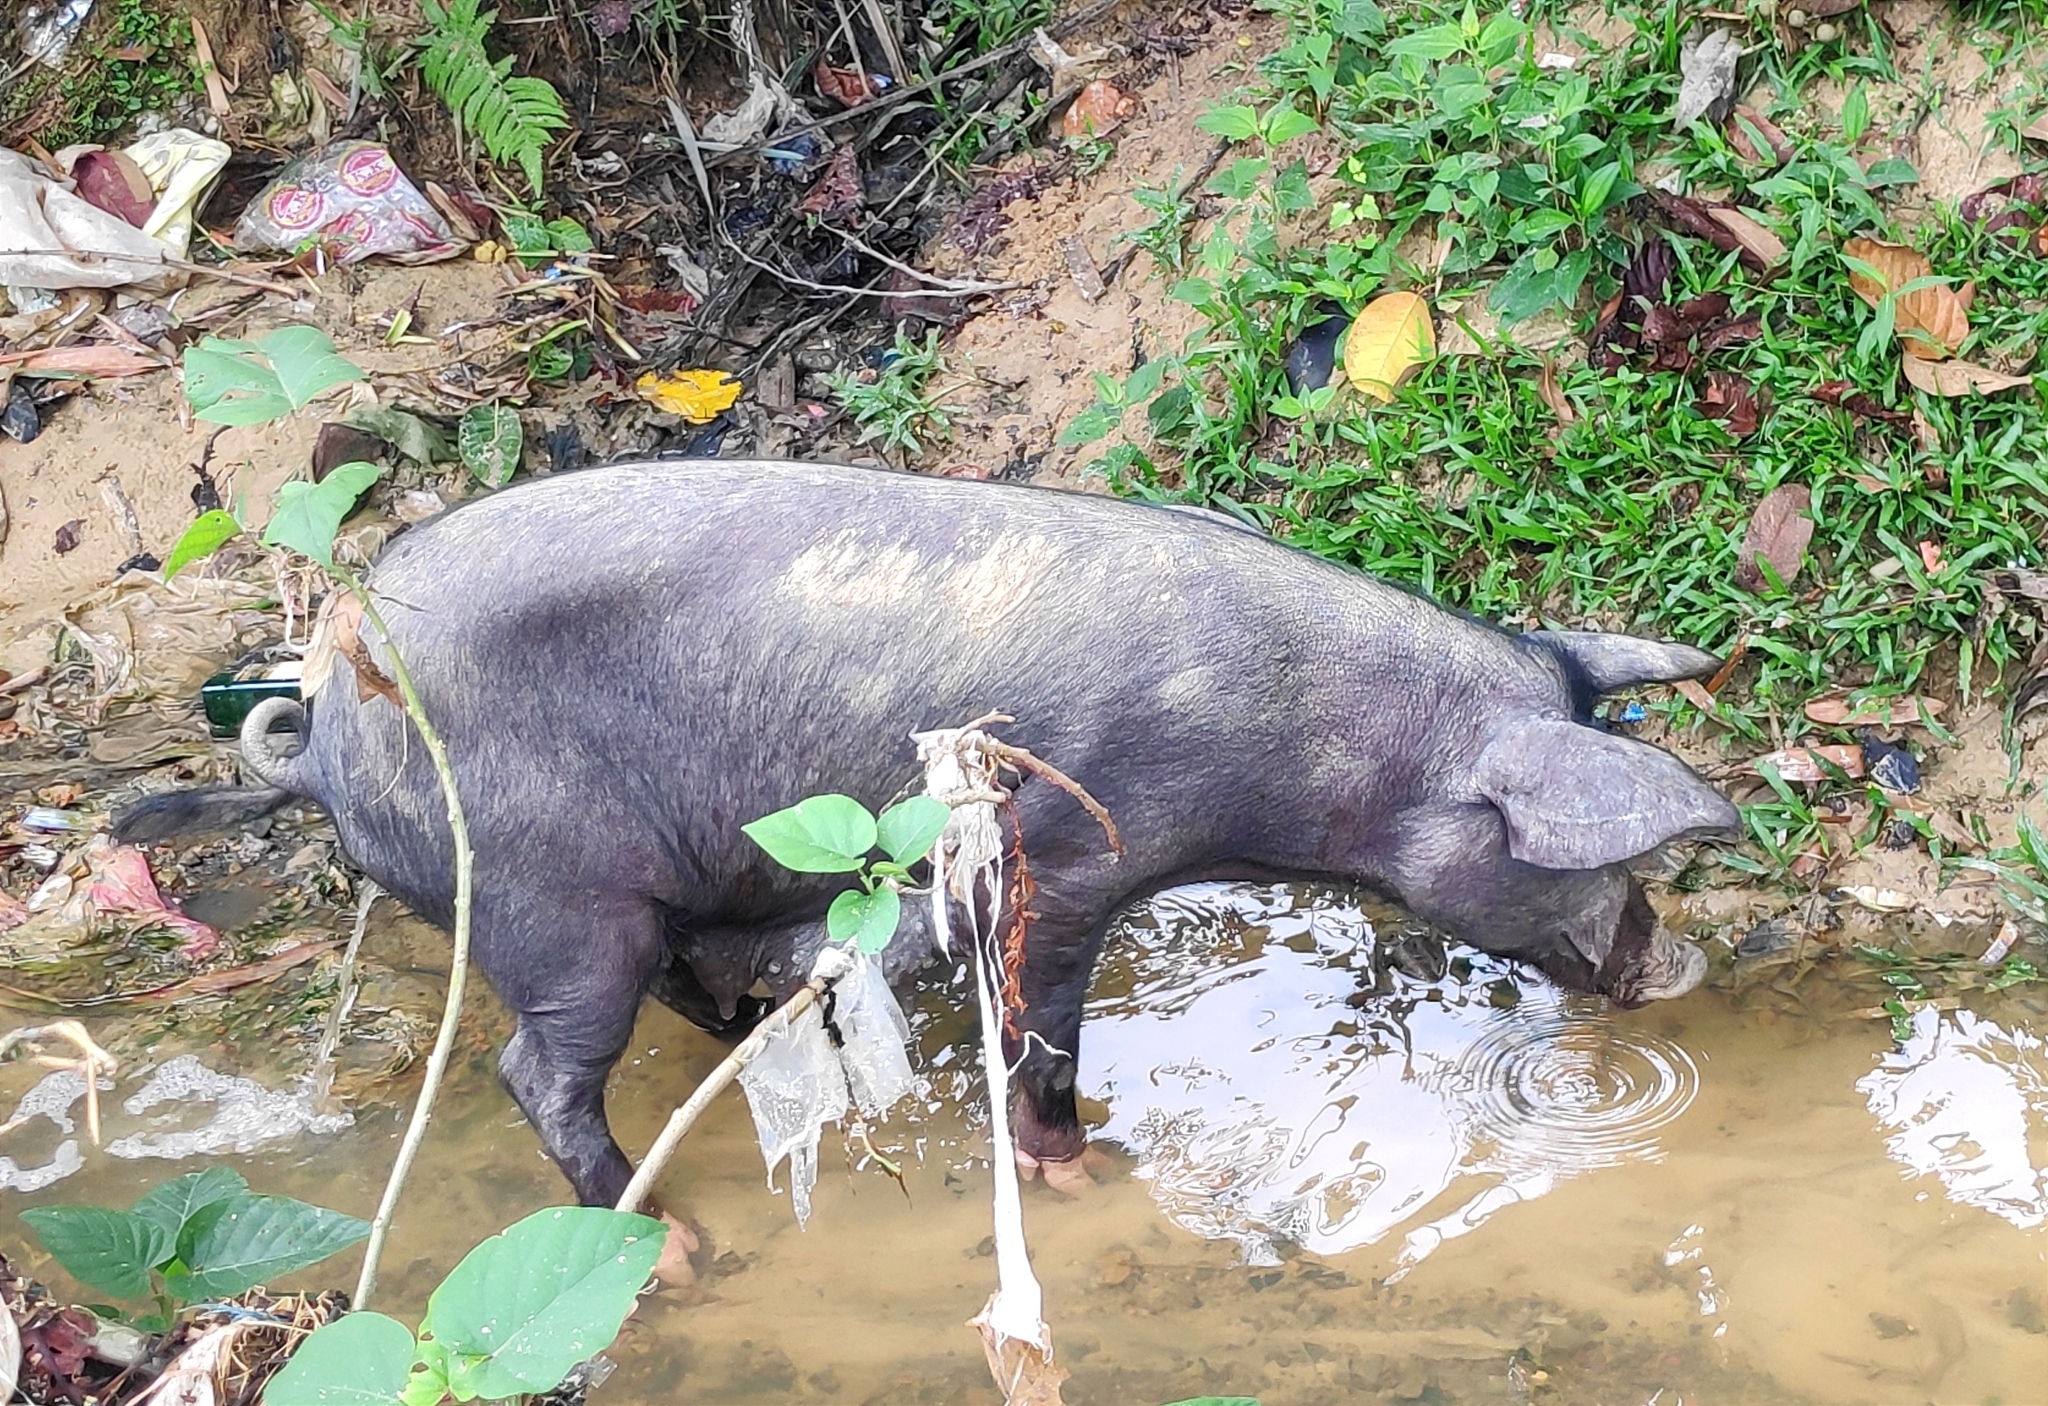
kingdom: Animalia
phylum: Chordata
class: Mammalia
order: Artiodactyla
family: Suidae
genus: Sus
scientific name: Sus scrofa
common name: Wild boar
